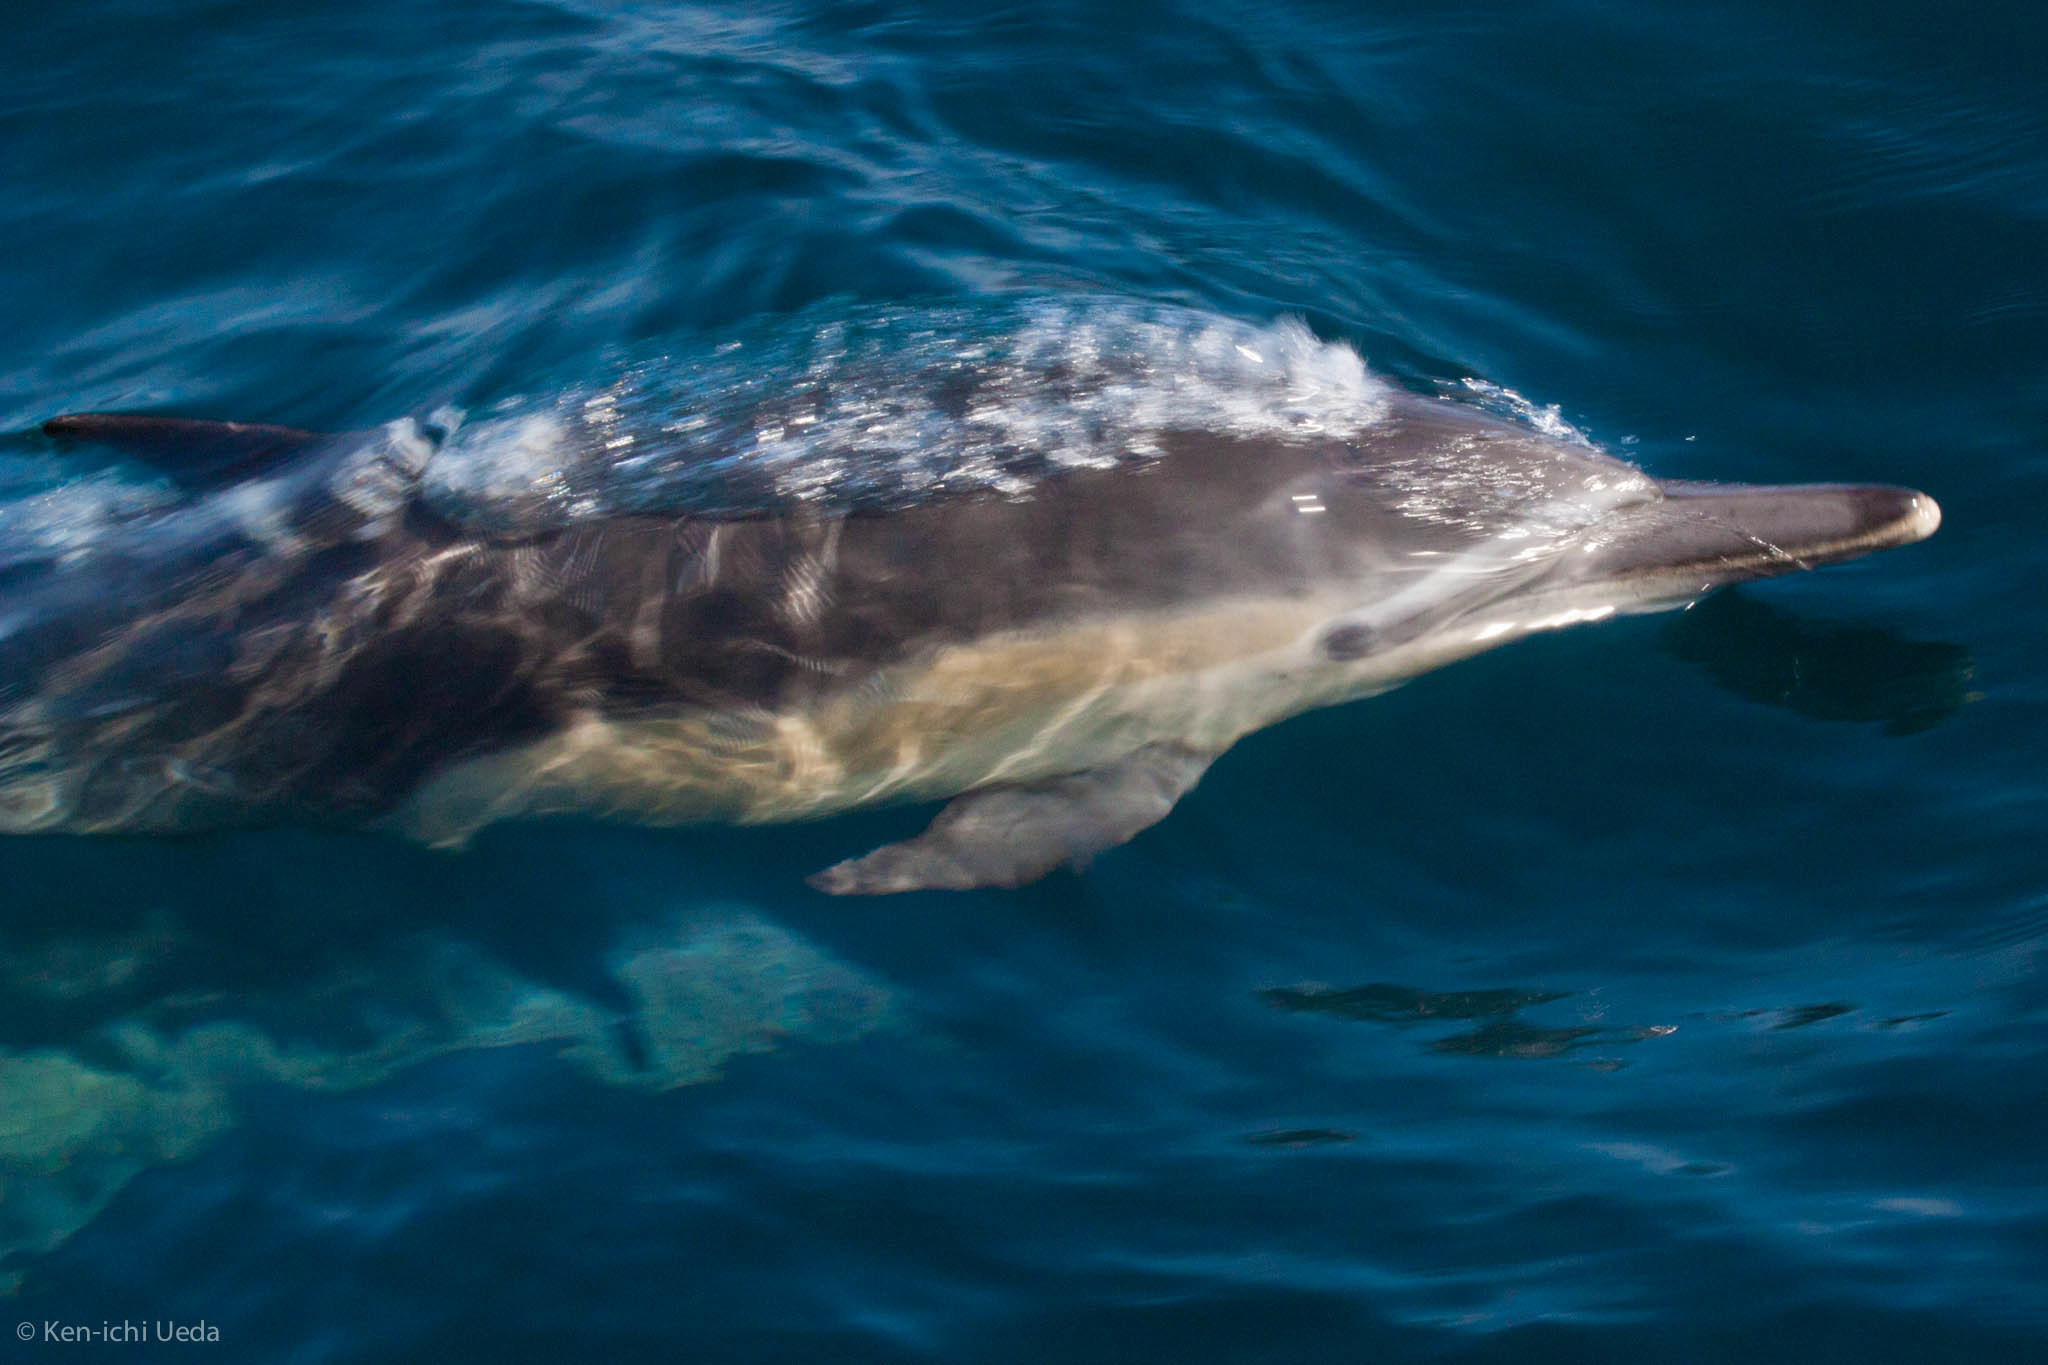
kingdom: Animalia
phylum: Chordata
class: Mammalia
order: Cetacea
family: Delphinidae
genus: Delphinus
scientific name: Delphinus delphis
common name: Common dolphin
